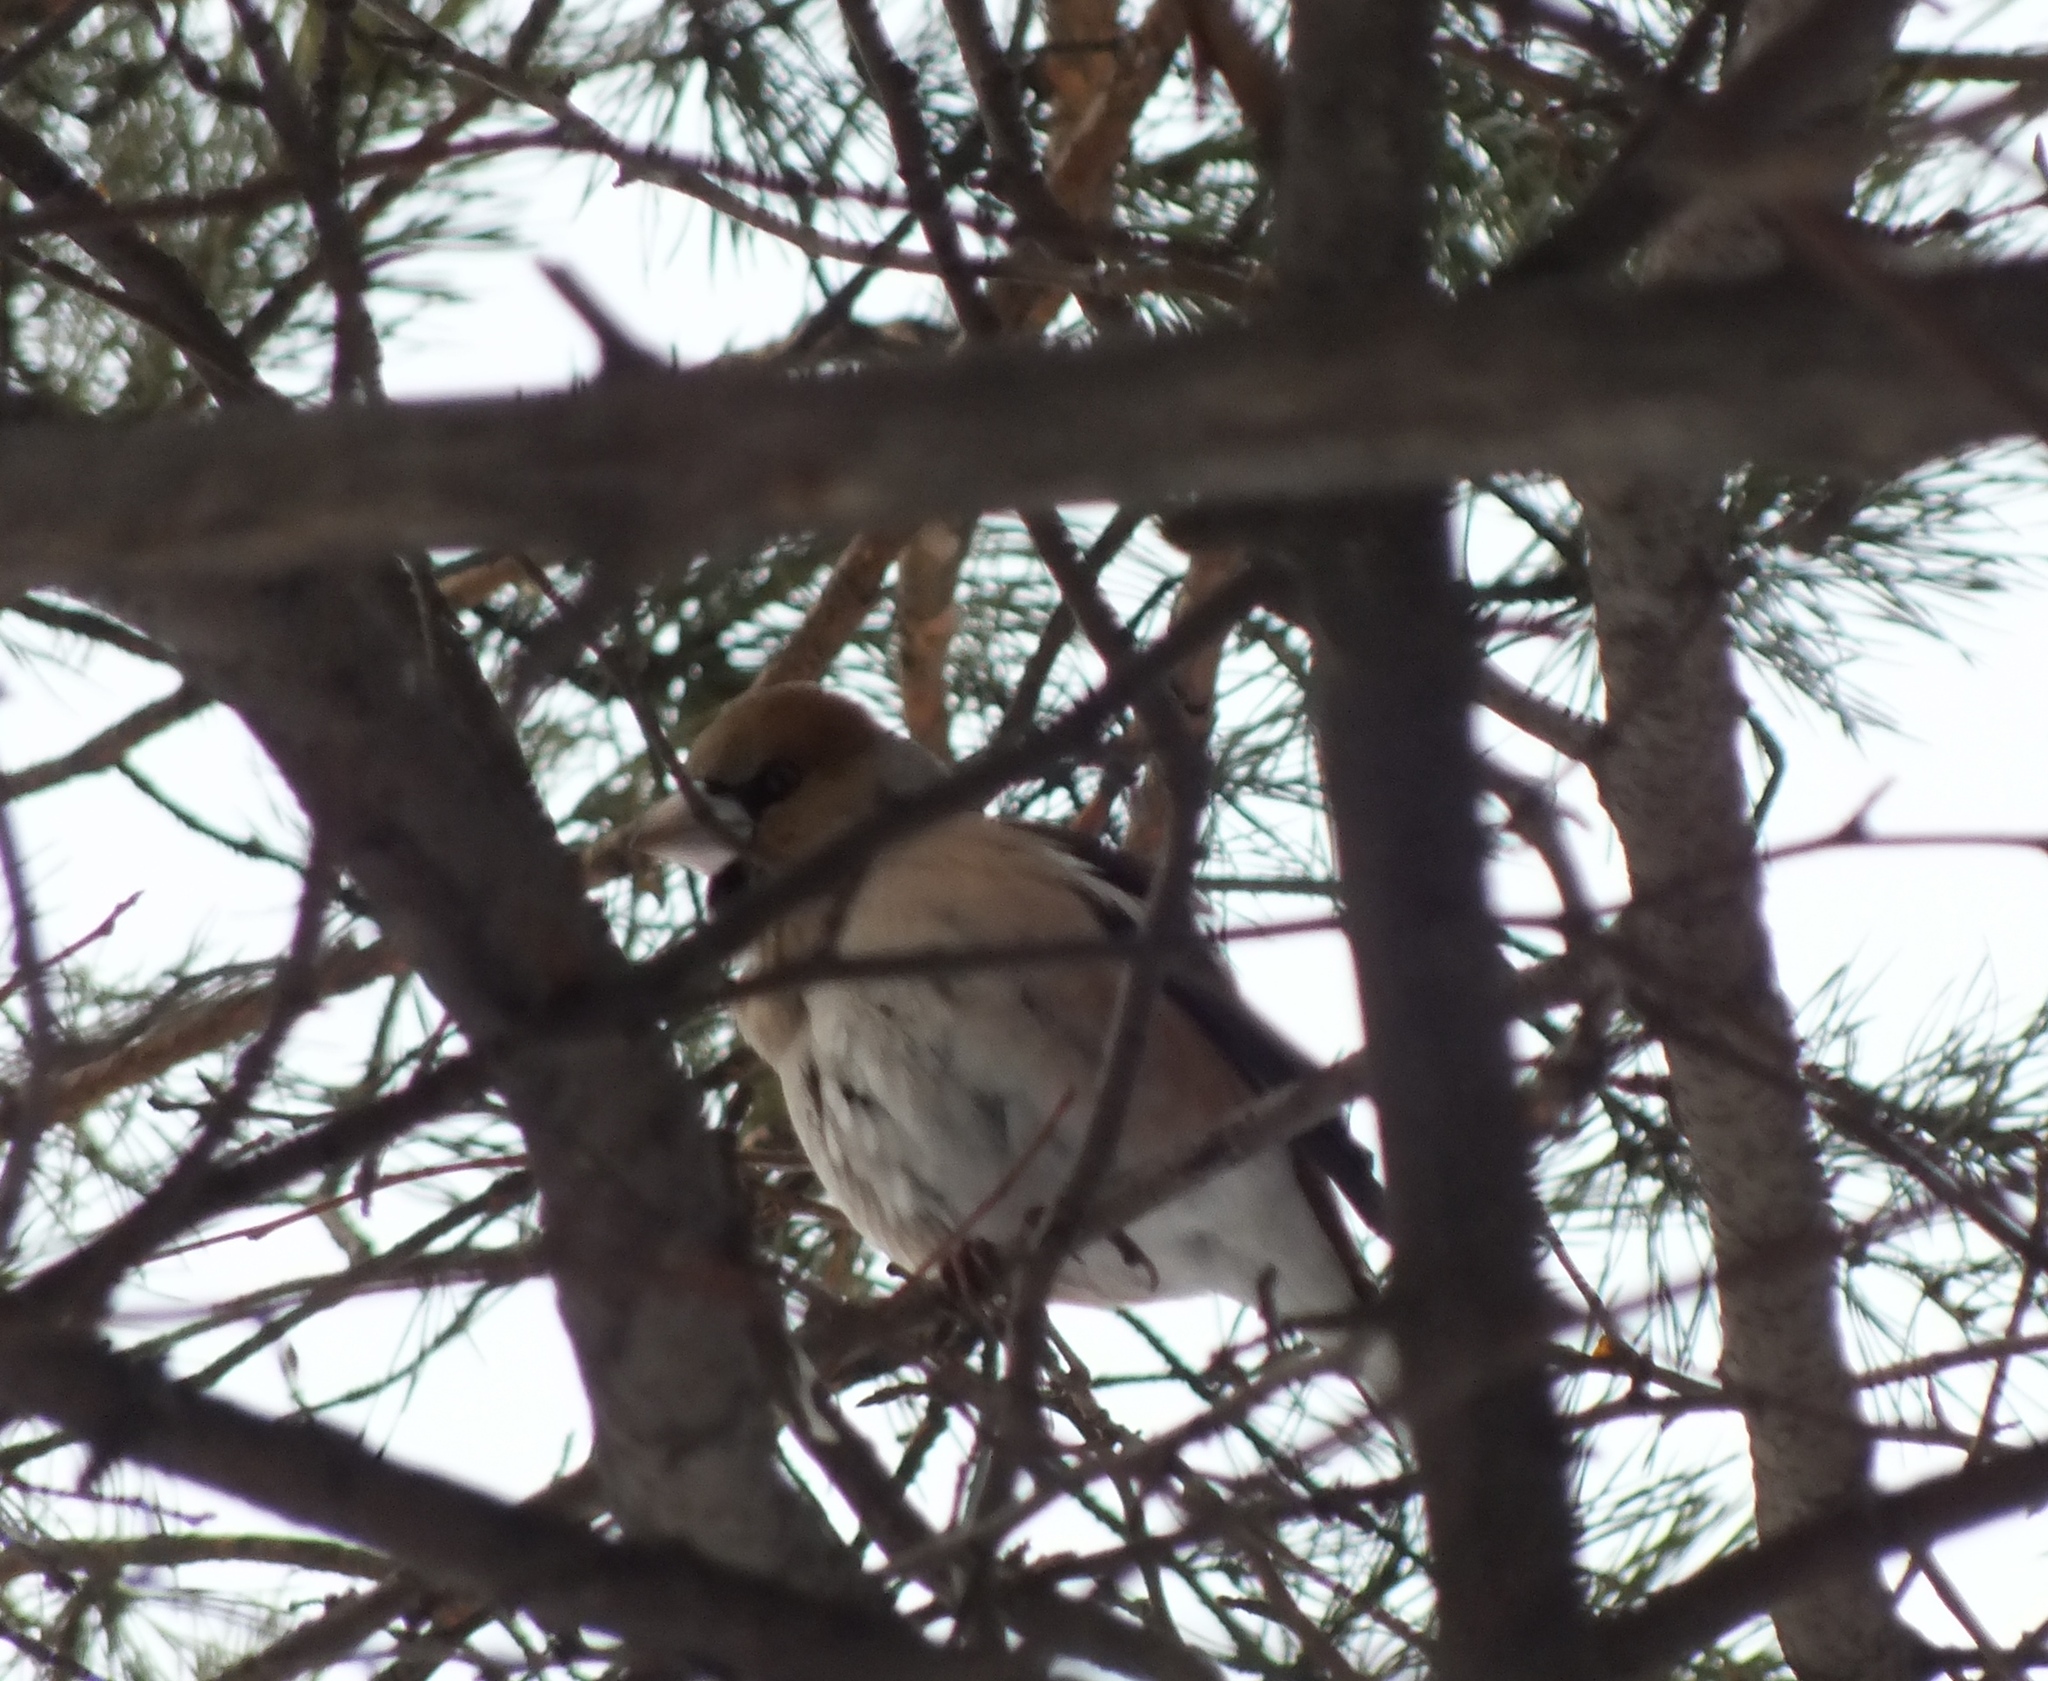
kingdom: Animalia
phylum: Chordata
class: Aves
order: Passeriformes
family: Fringillidae
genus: Coccothraustes
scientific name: Coccothraustes coccothraustes
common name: Hawfinch
